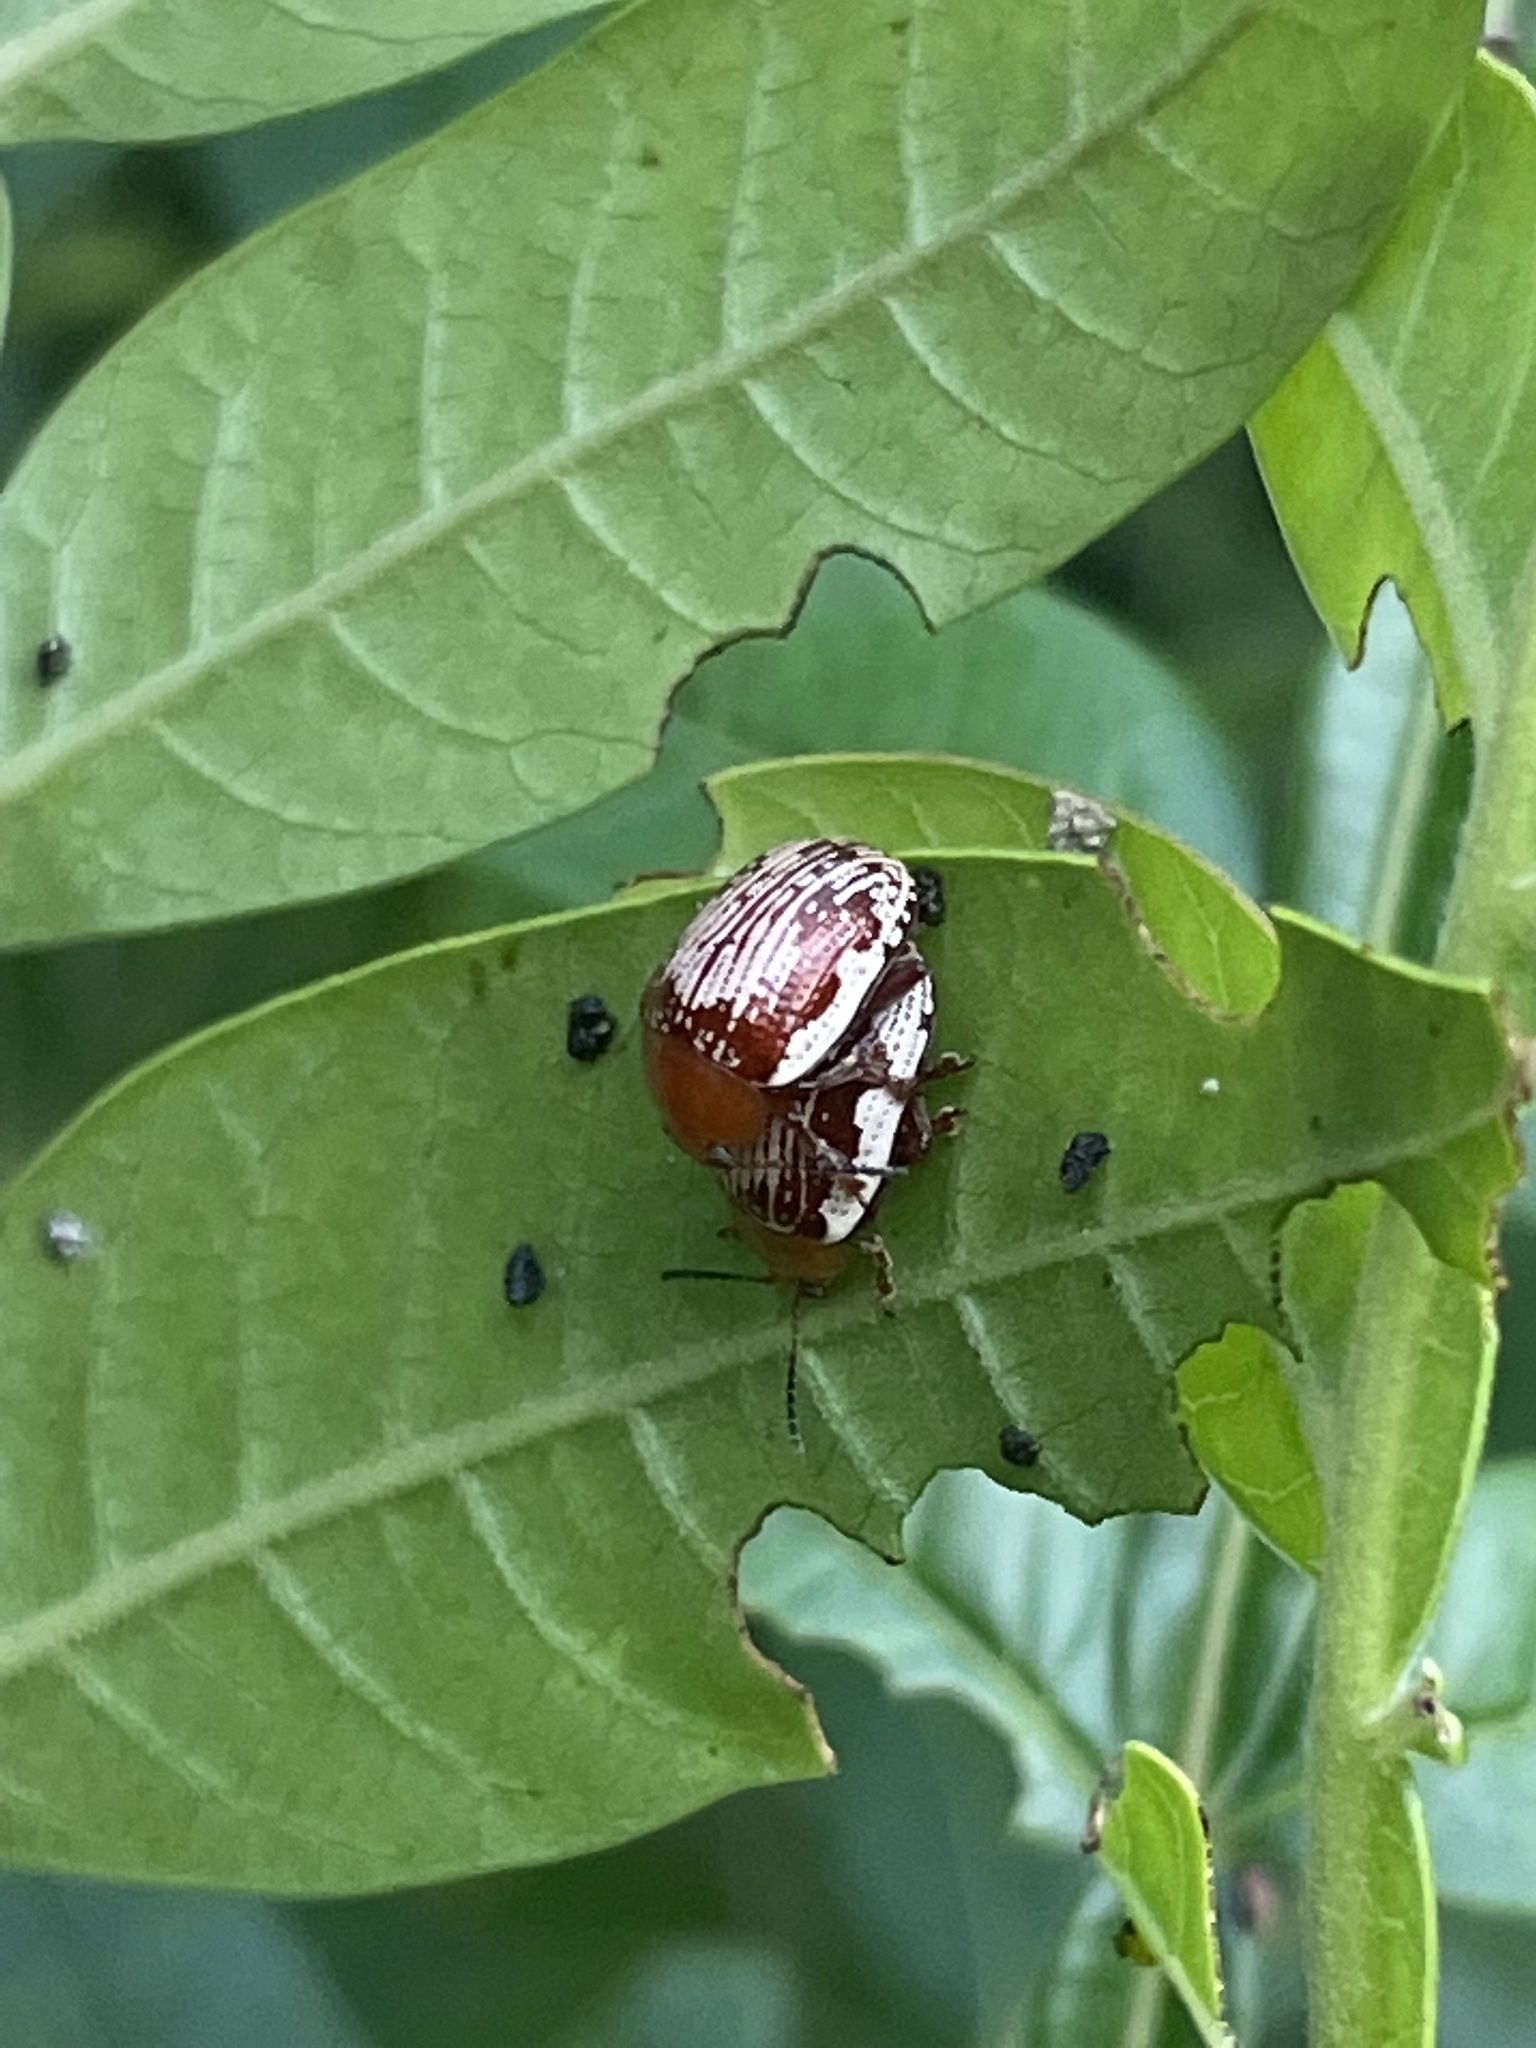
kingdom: Animalia
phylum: Arthropoda
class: Insecta
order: Coleoptera
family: Chrysomelidae
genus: Blepharida
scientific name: Blepharida rhois
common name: Sumac flea beetle
